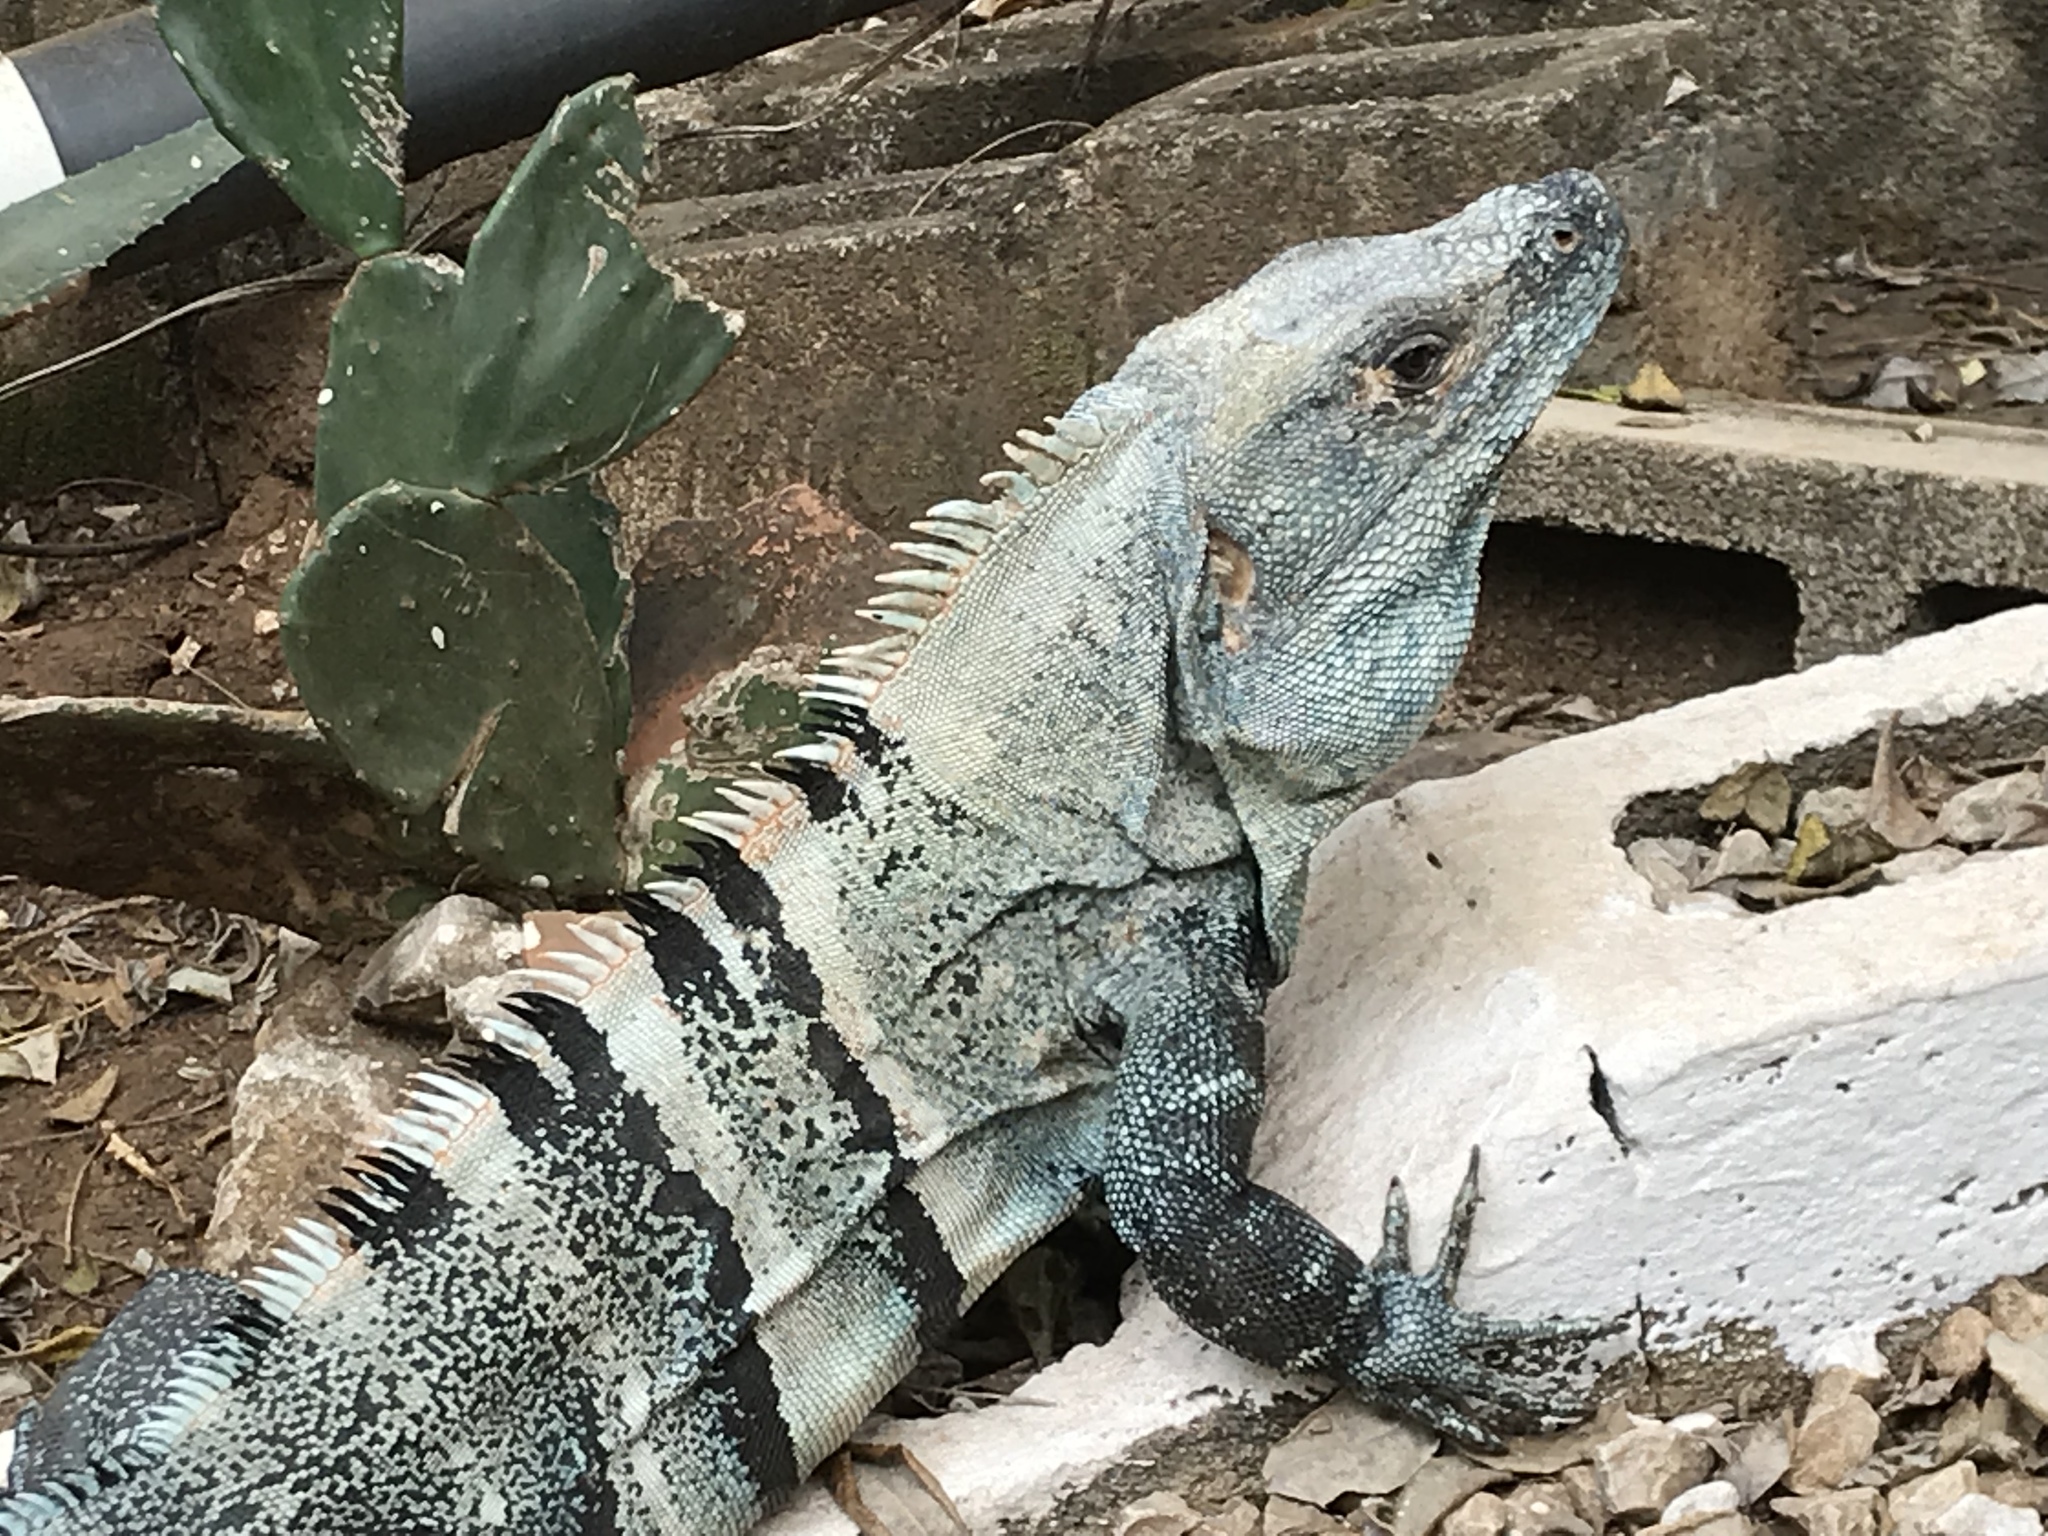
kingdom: Animalia
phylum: Chordata
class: Squamata
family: Iguanidae
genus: Ctenosaura
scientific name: Ctenosaura similis
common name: Black spiny-tailed iguana
